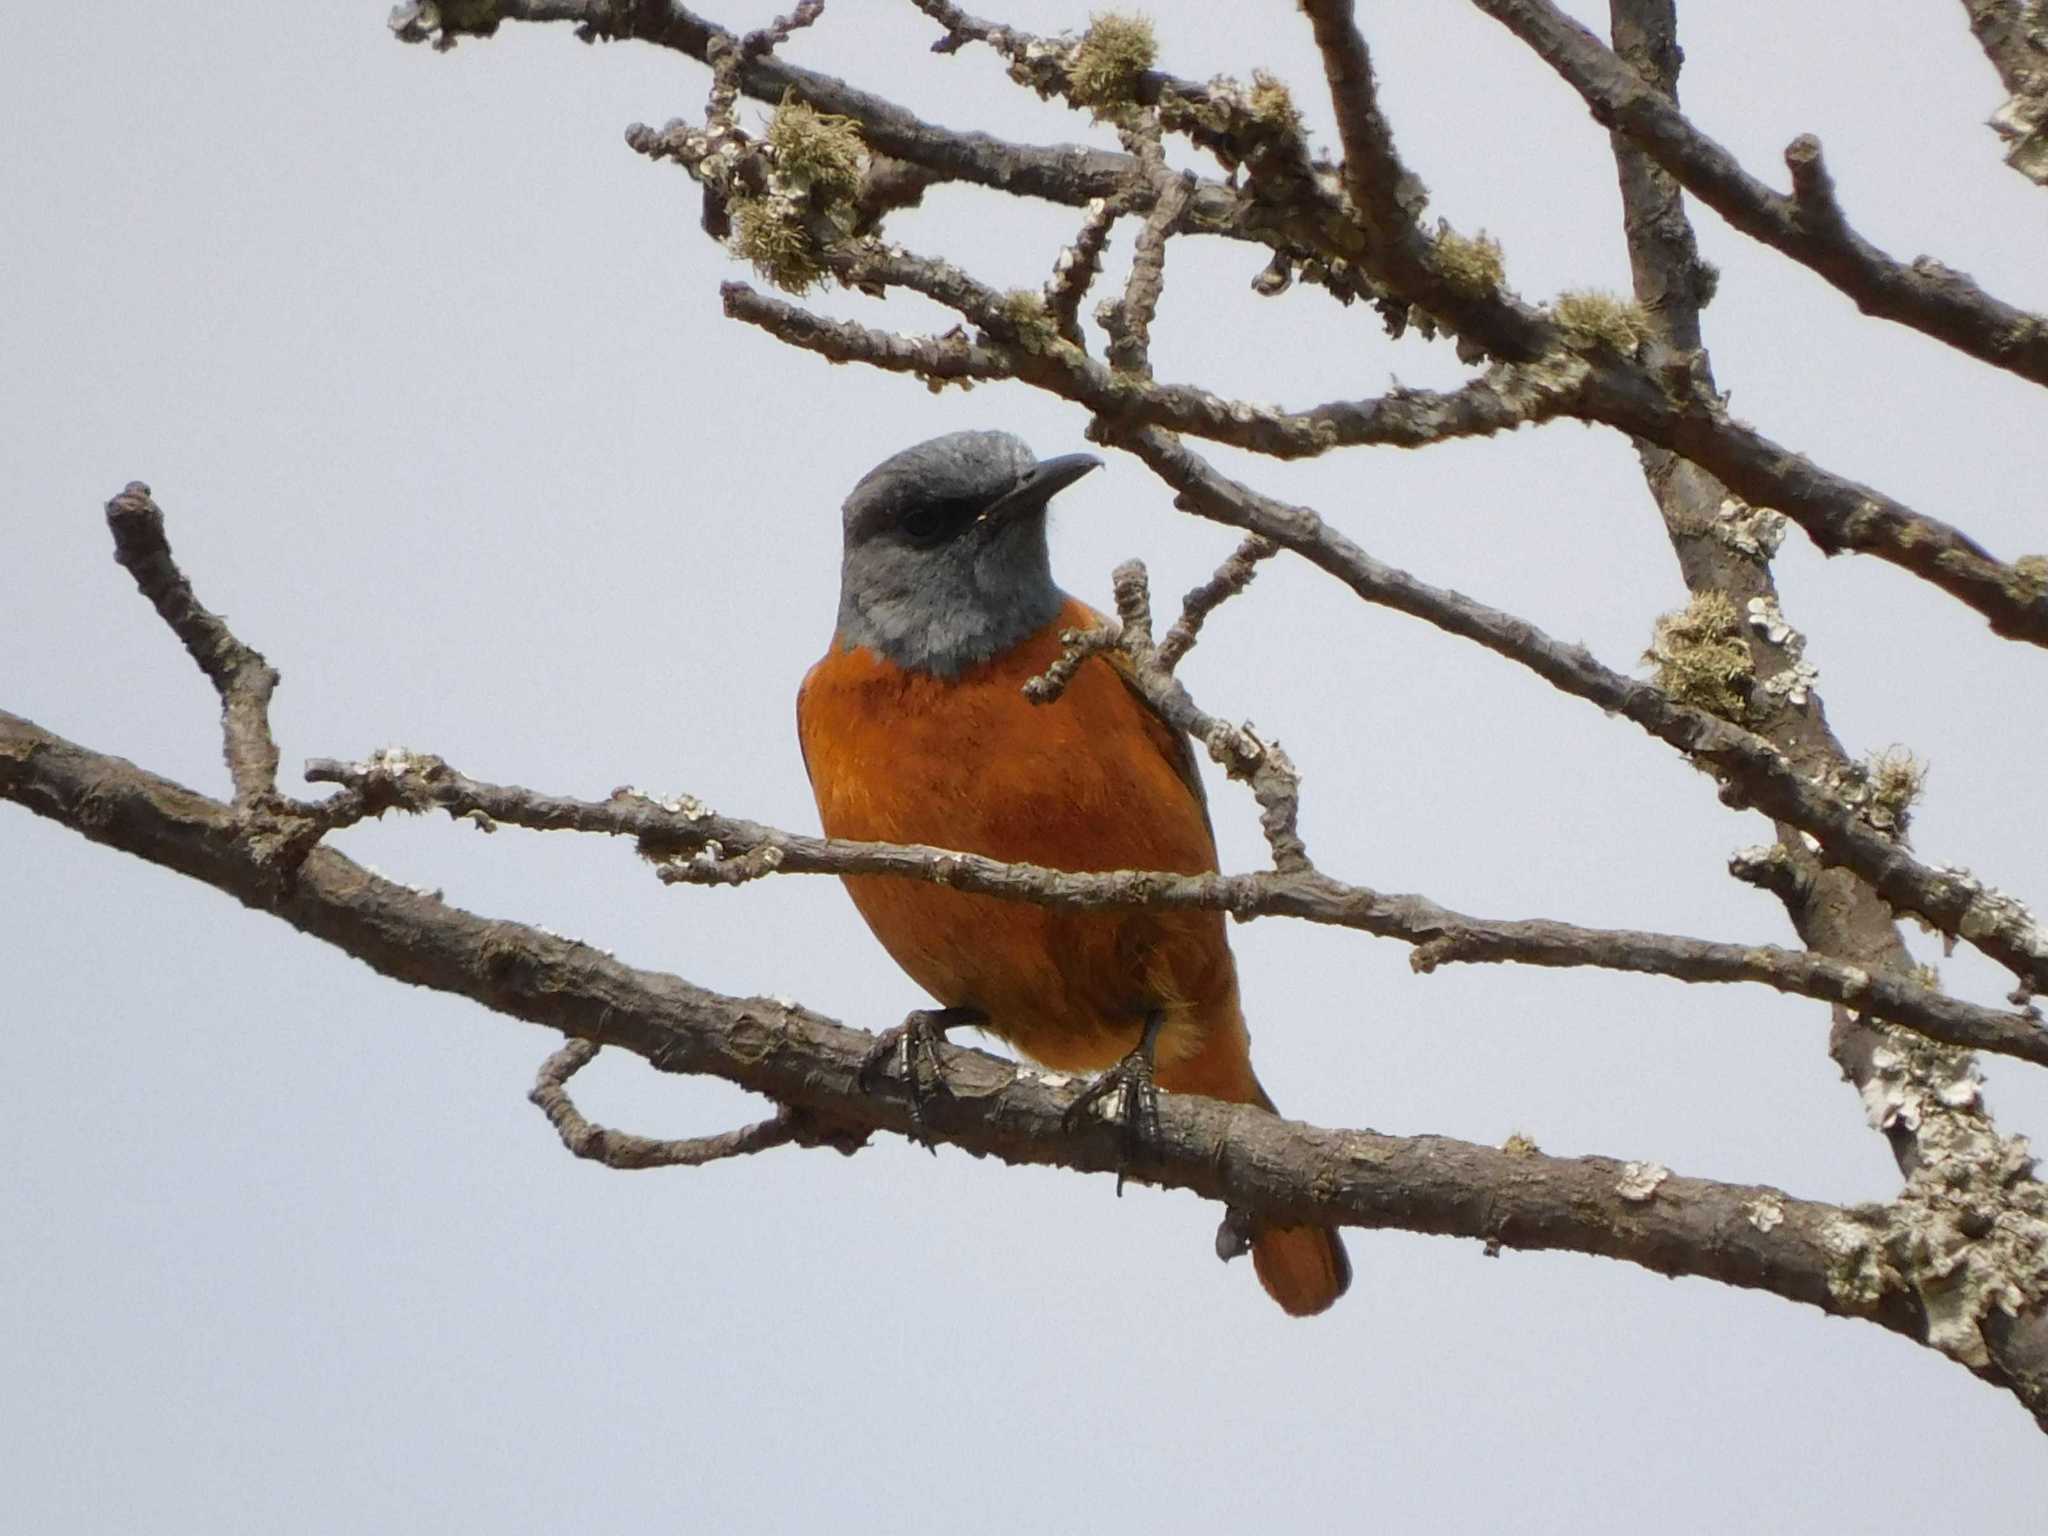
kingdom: Animalia
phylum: Chordata
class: Aves
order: Passeriformes
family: Muscicapidae
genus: Monticola
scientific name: Monticola rupestris
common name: Cape rock thrush
